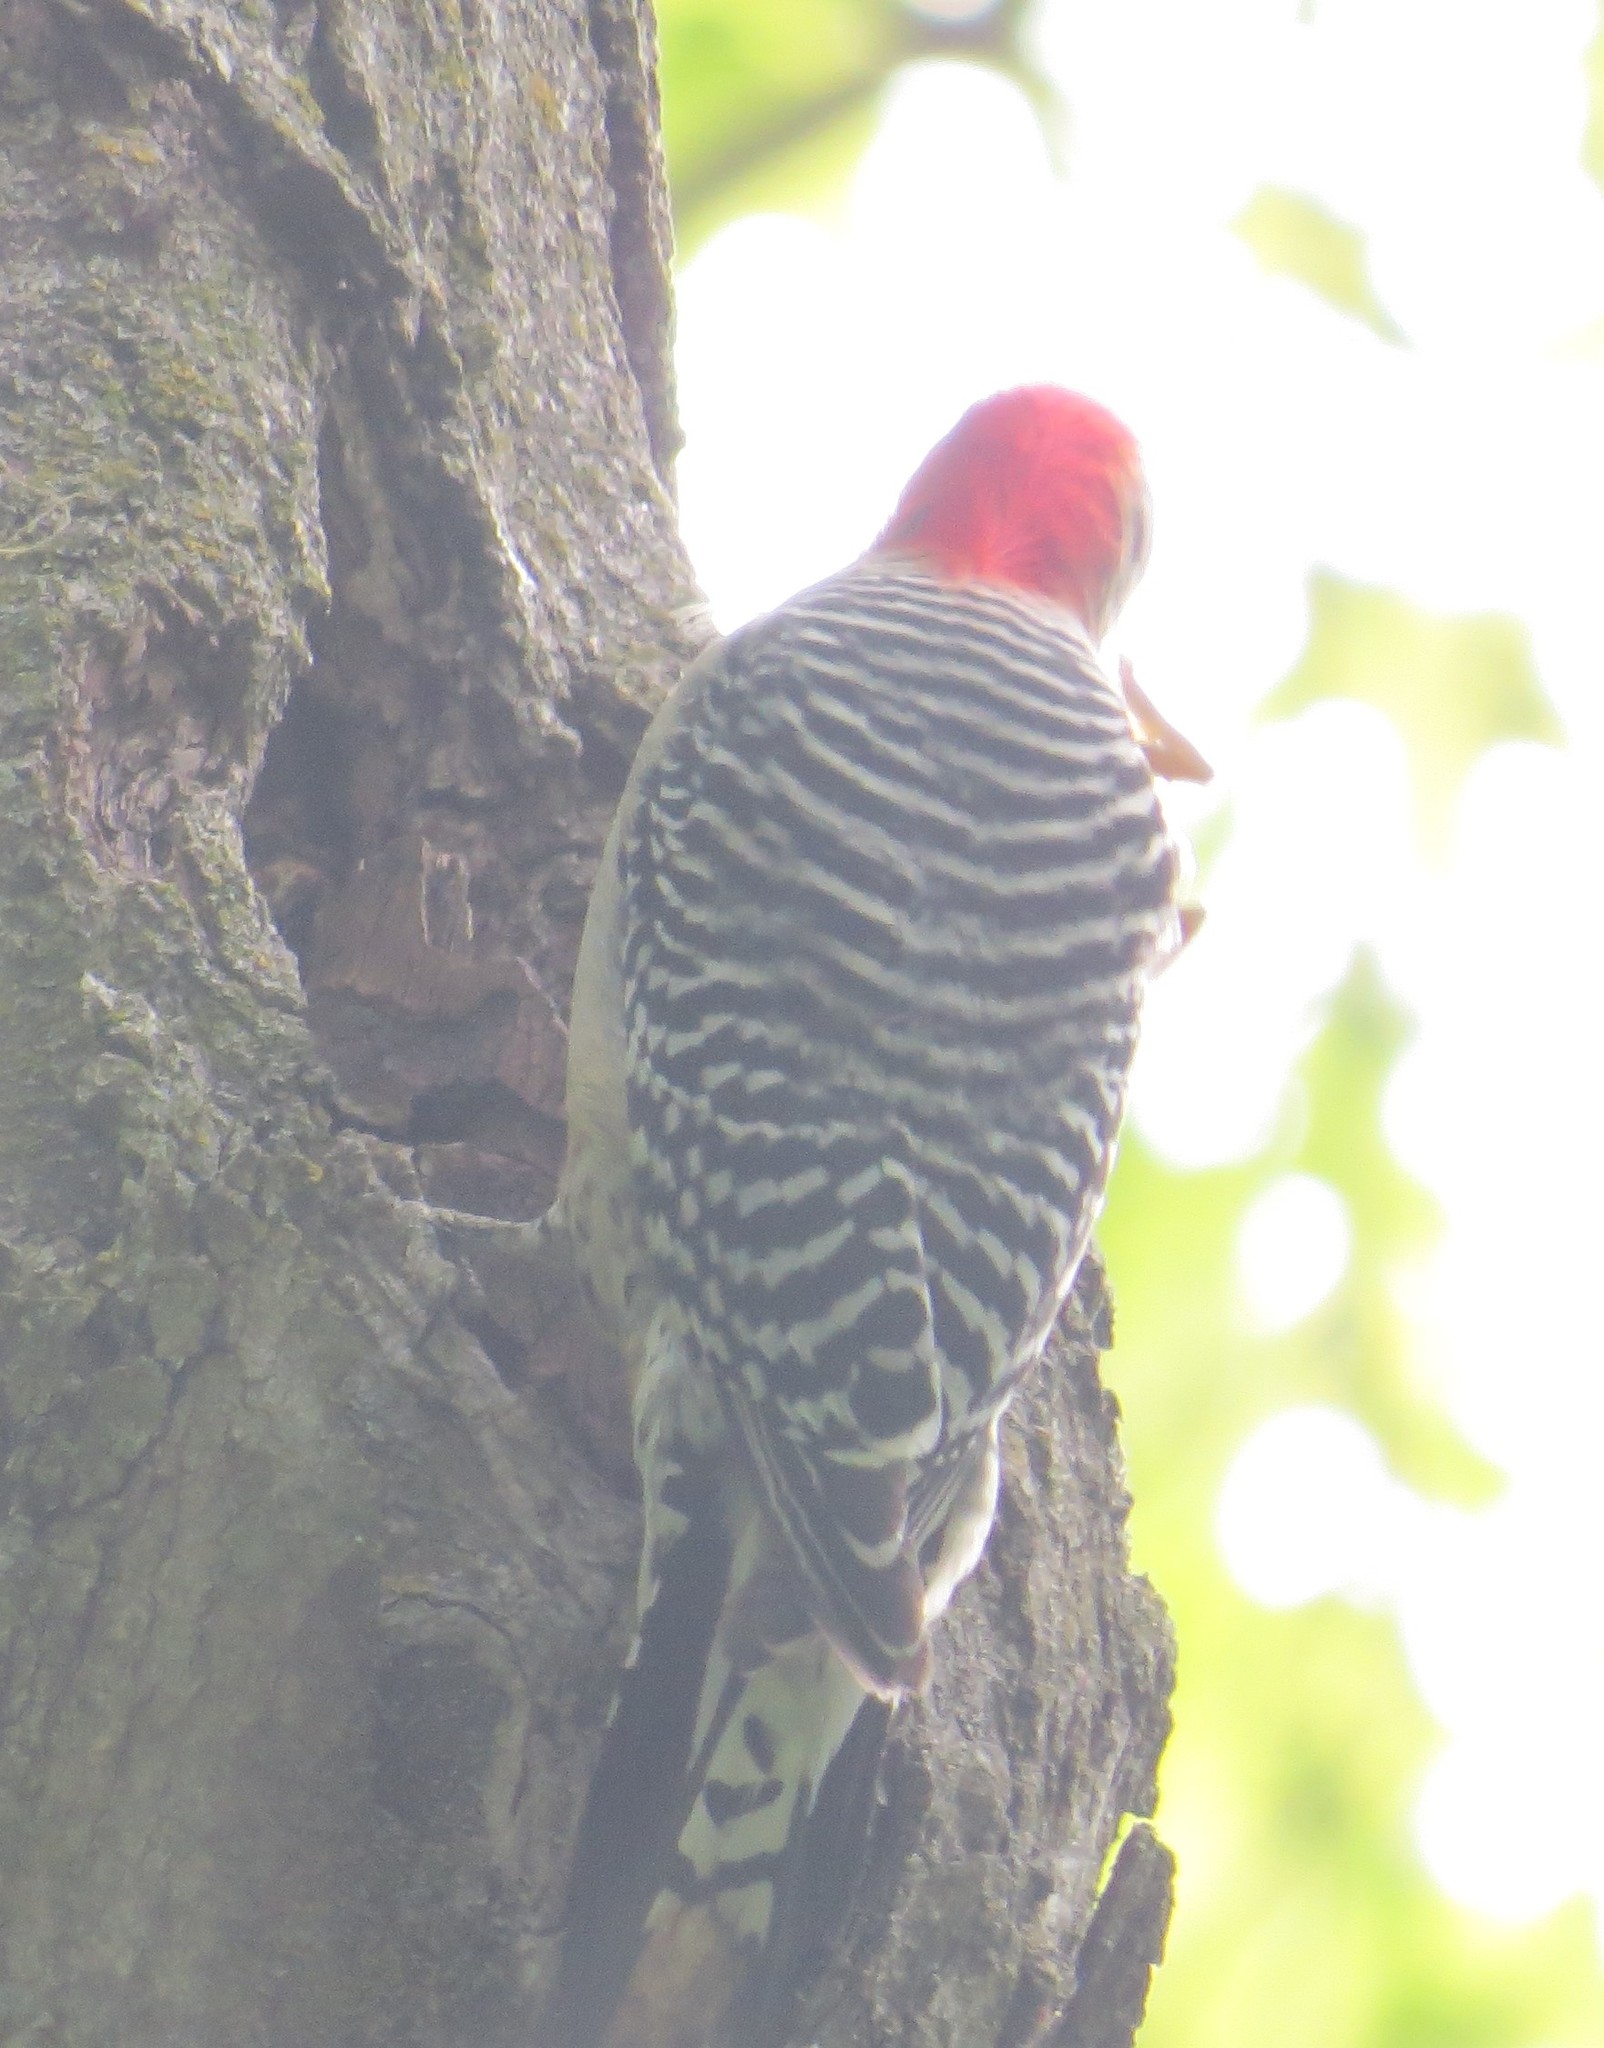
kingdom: Animalia
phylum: Chordata
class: Aves
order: Piciformes
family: Picidae
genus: Melanerpes
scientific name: Melanerpes carolinus
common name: Red-bellied woodpecker
